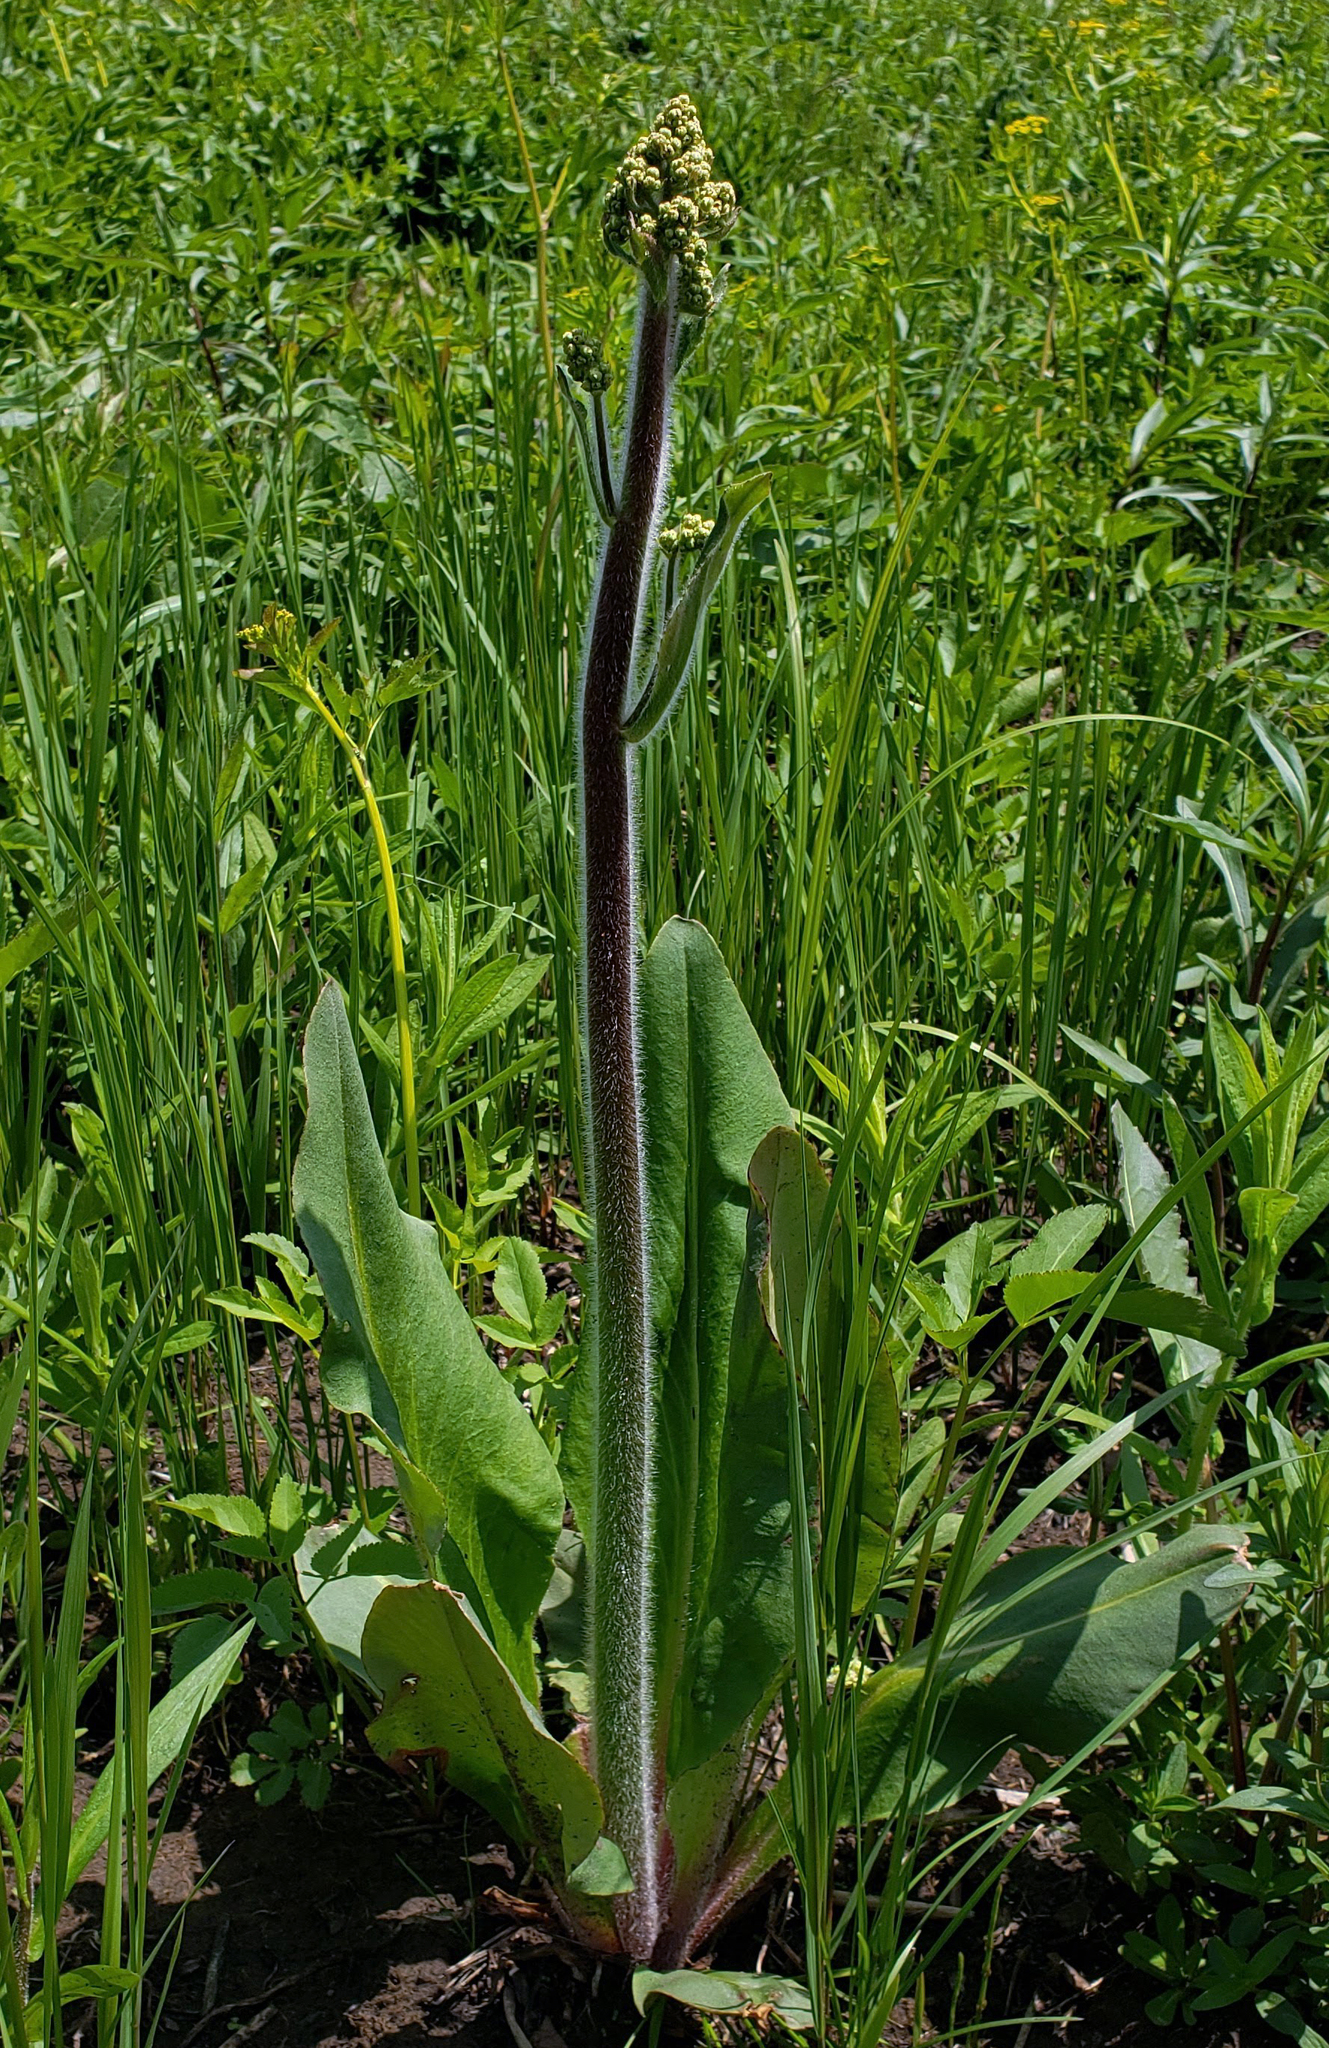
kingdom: Plantae
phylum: Tracheophyta
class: Magnoliopsida
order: Saxifragales
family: Saxifragaceae
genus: Micranthes
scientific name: Micranthes pensylvanica
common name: Marsh saxifrage
